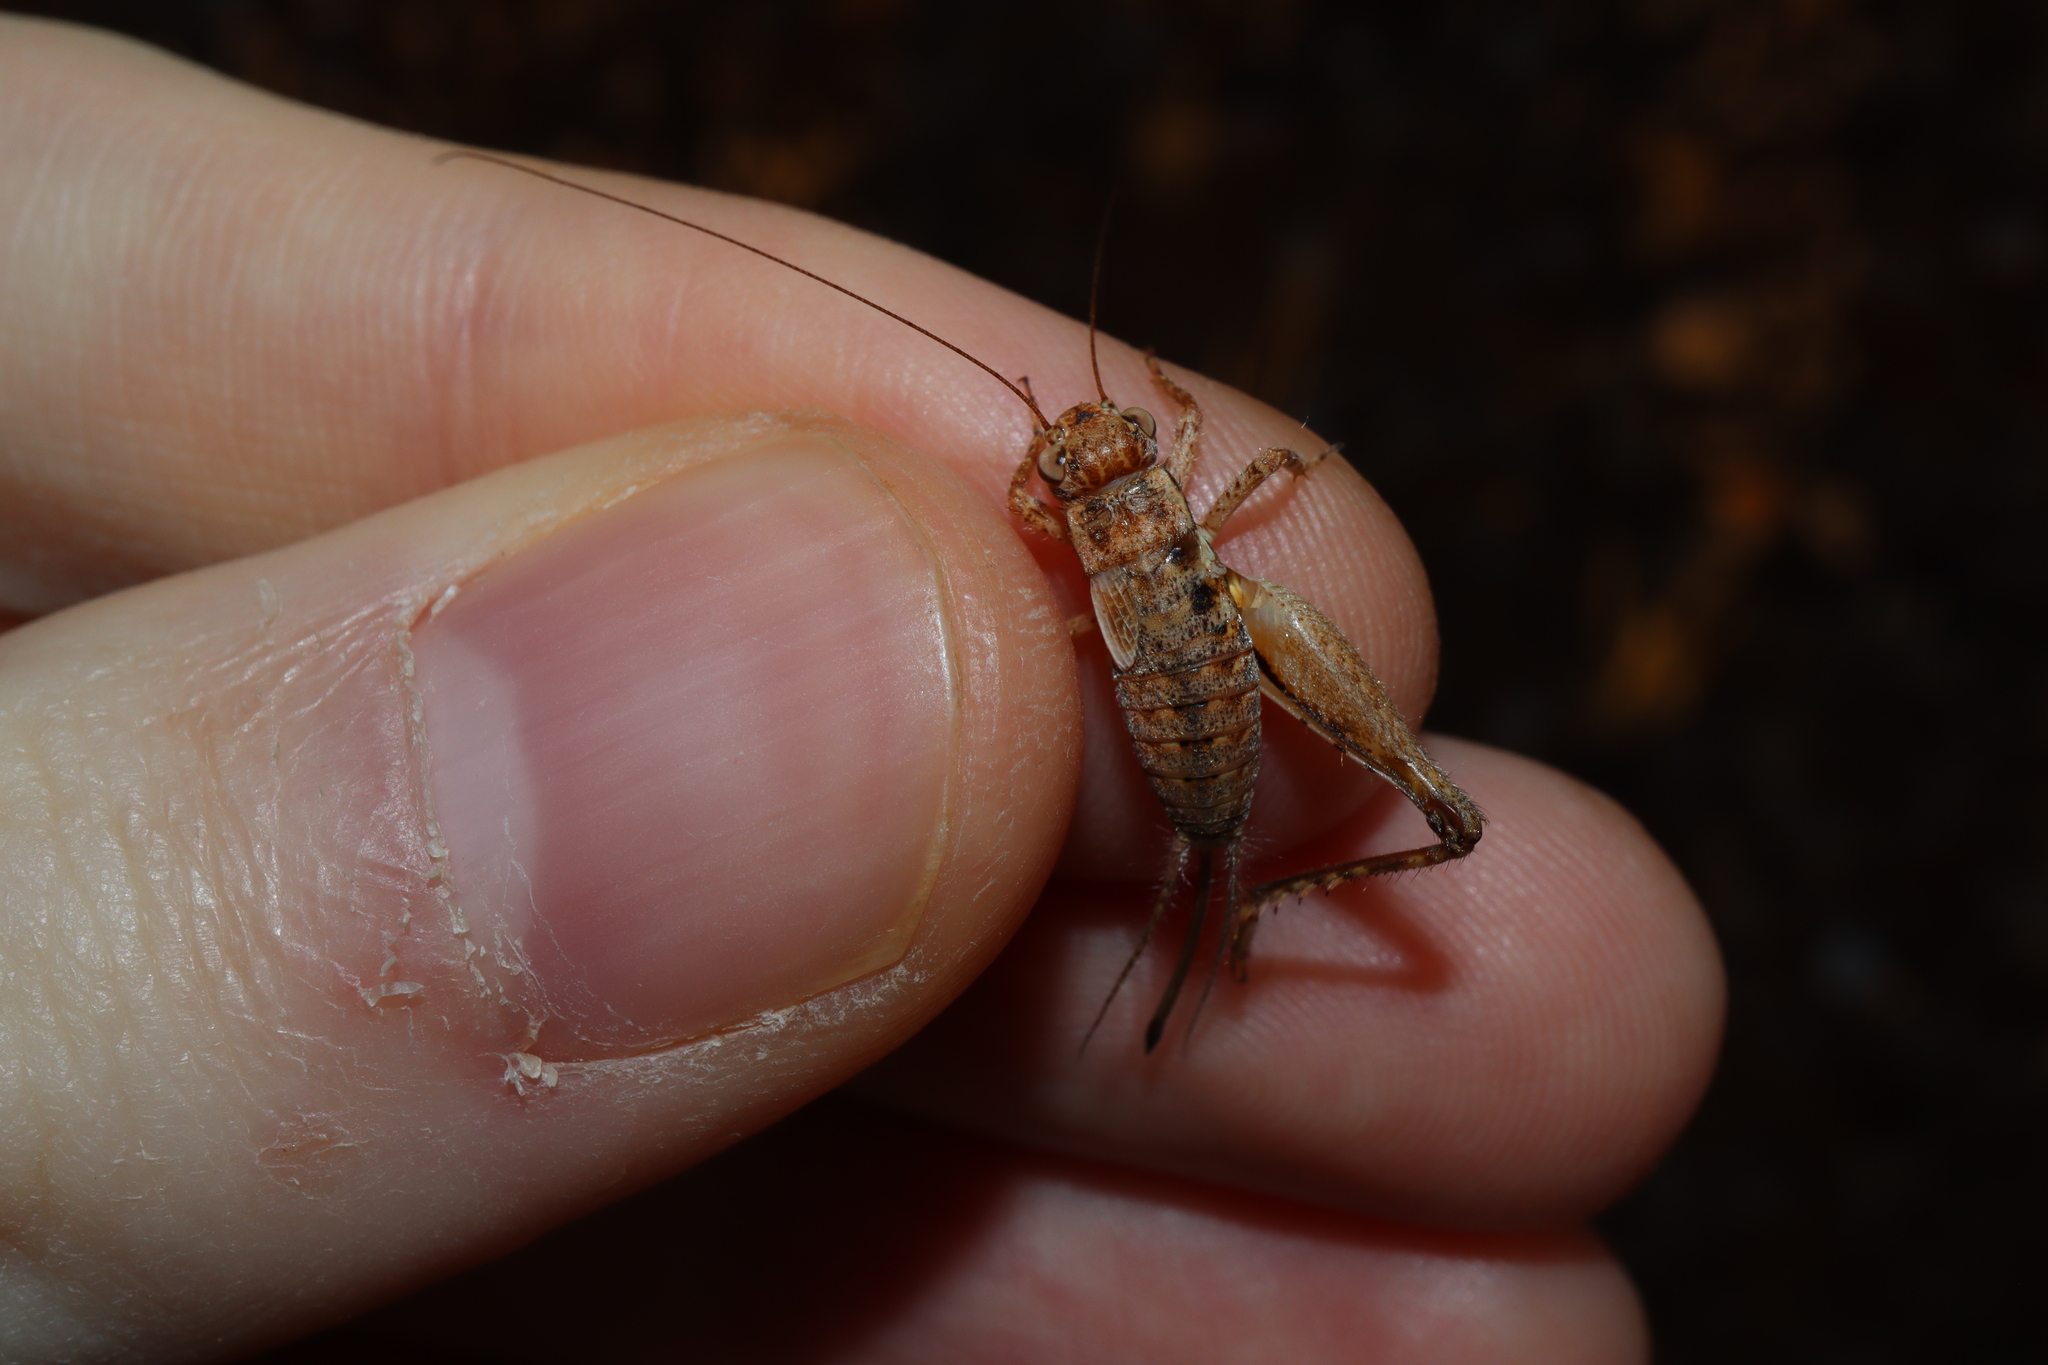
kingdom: Animalia
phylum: Arthropoda
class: Insecta
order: Orthoptera
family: Gryllidae
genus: Eurepella
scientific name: Eurepella ballina
